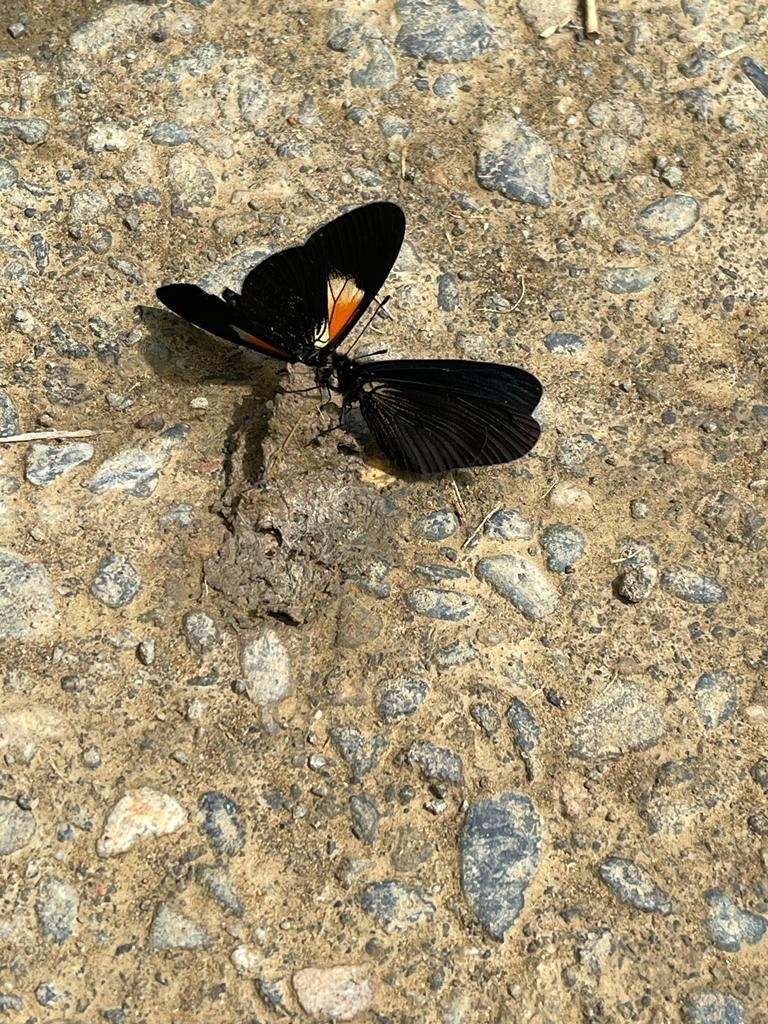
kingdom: Animalia
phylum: Arthropoda
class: Insecta
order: Lepidoptera
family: Nymphalidae
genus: Acraea
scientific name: Acraea Altinote ozomene
